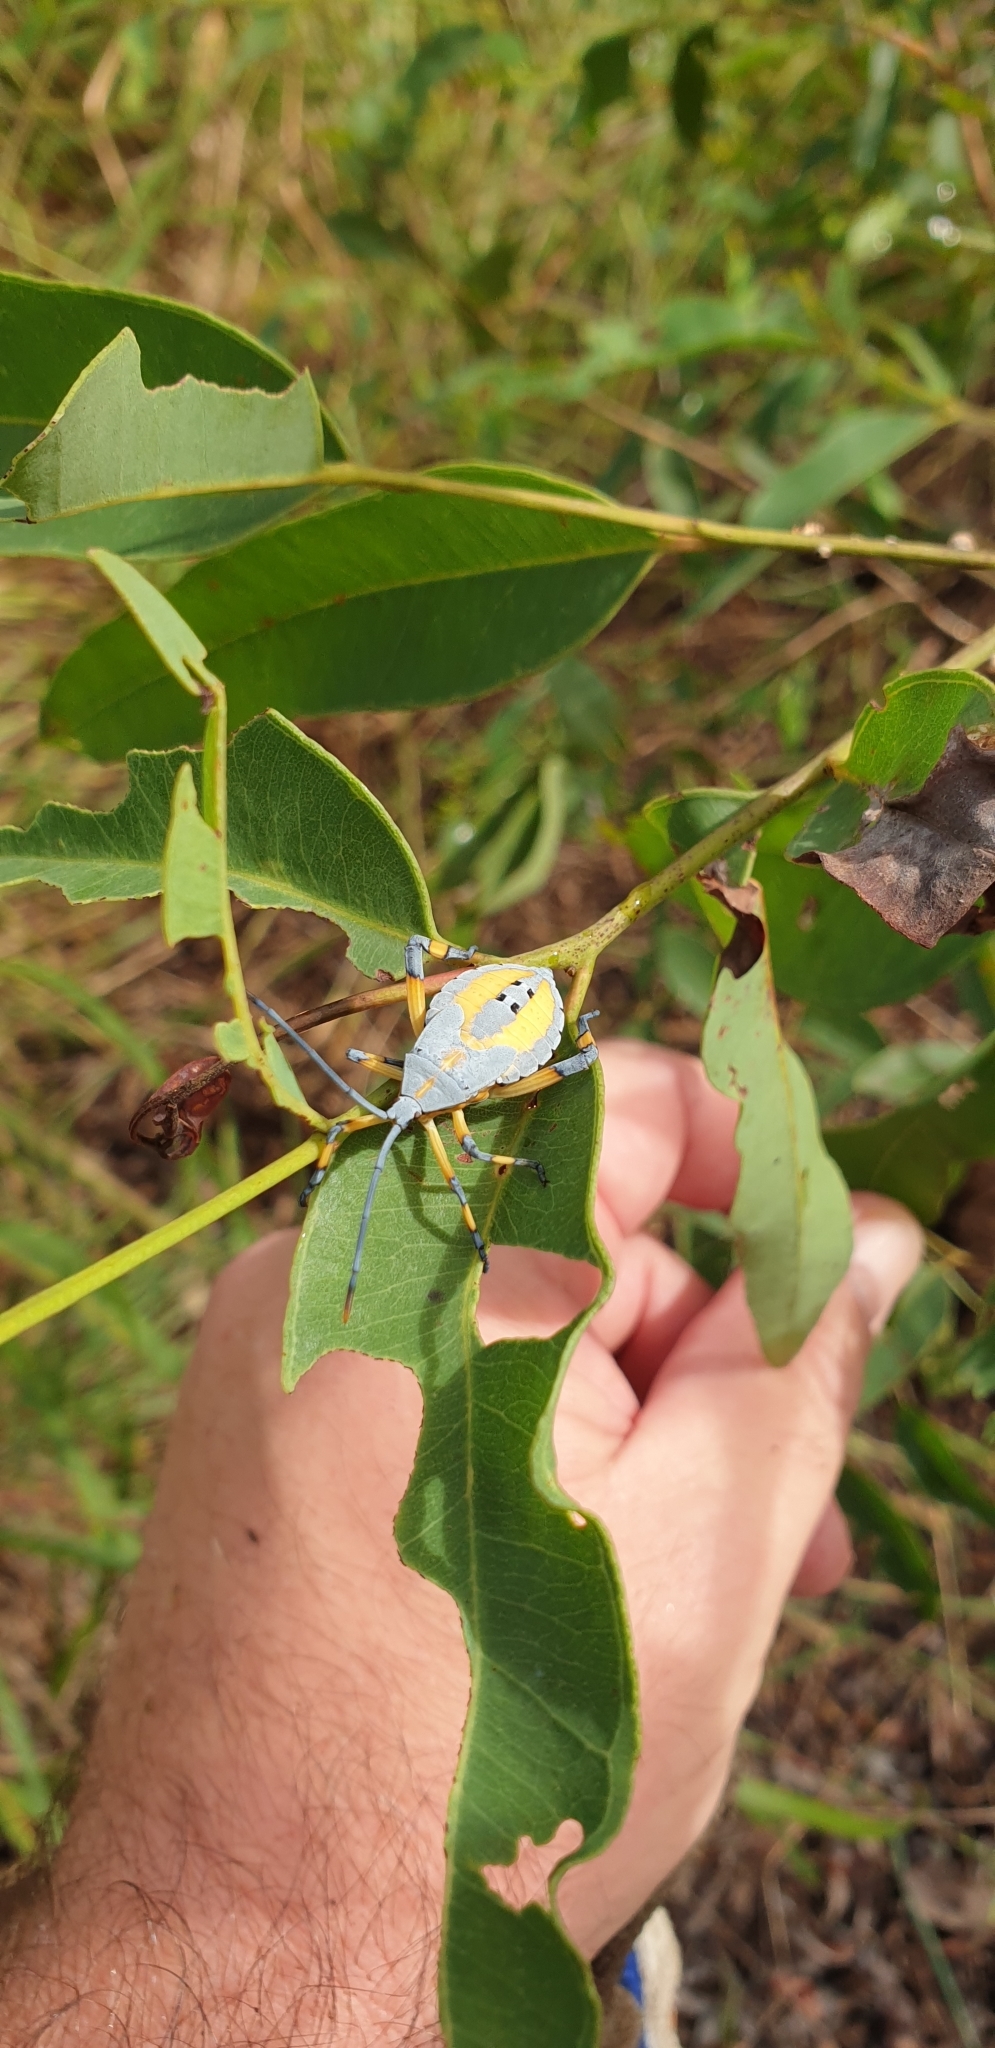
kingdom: Animalia
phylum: Arthropoda
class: Insecta
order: Hemiptera
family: Coreidae
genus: Amorbus
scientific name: Amorbus robustus
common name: Common gum-tree bug
